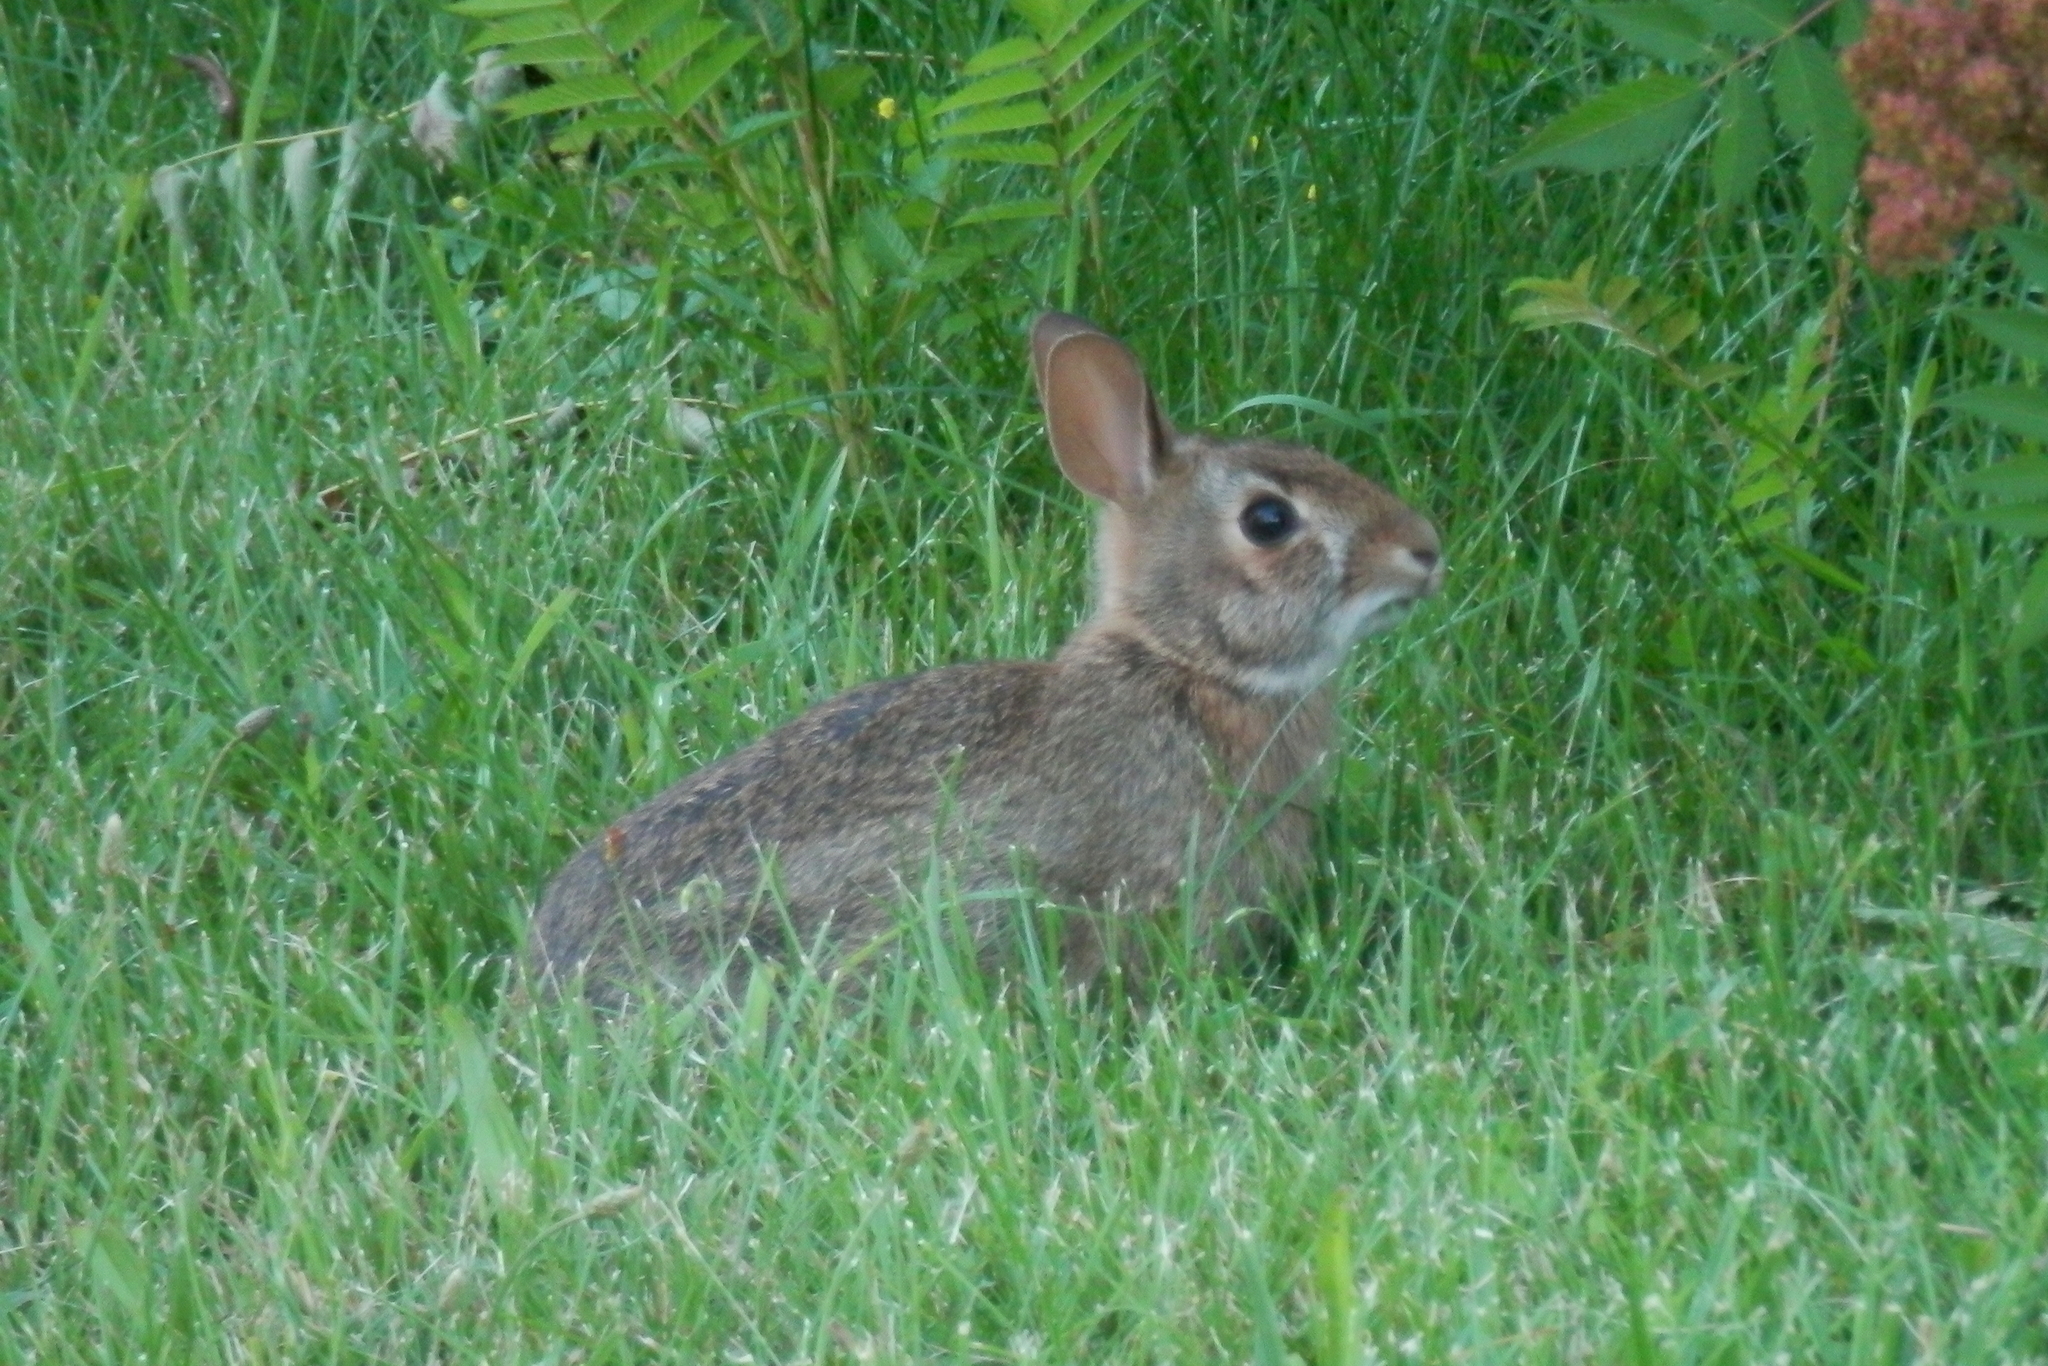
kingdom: Animalia
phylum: Chordata
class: Mammalia
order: Lagomorpha
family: Leporidae
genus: Sylvilagus
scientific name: Sylvilagus floridanus
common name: Eastern cottontail
